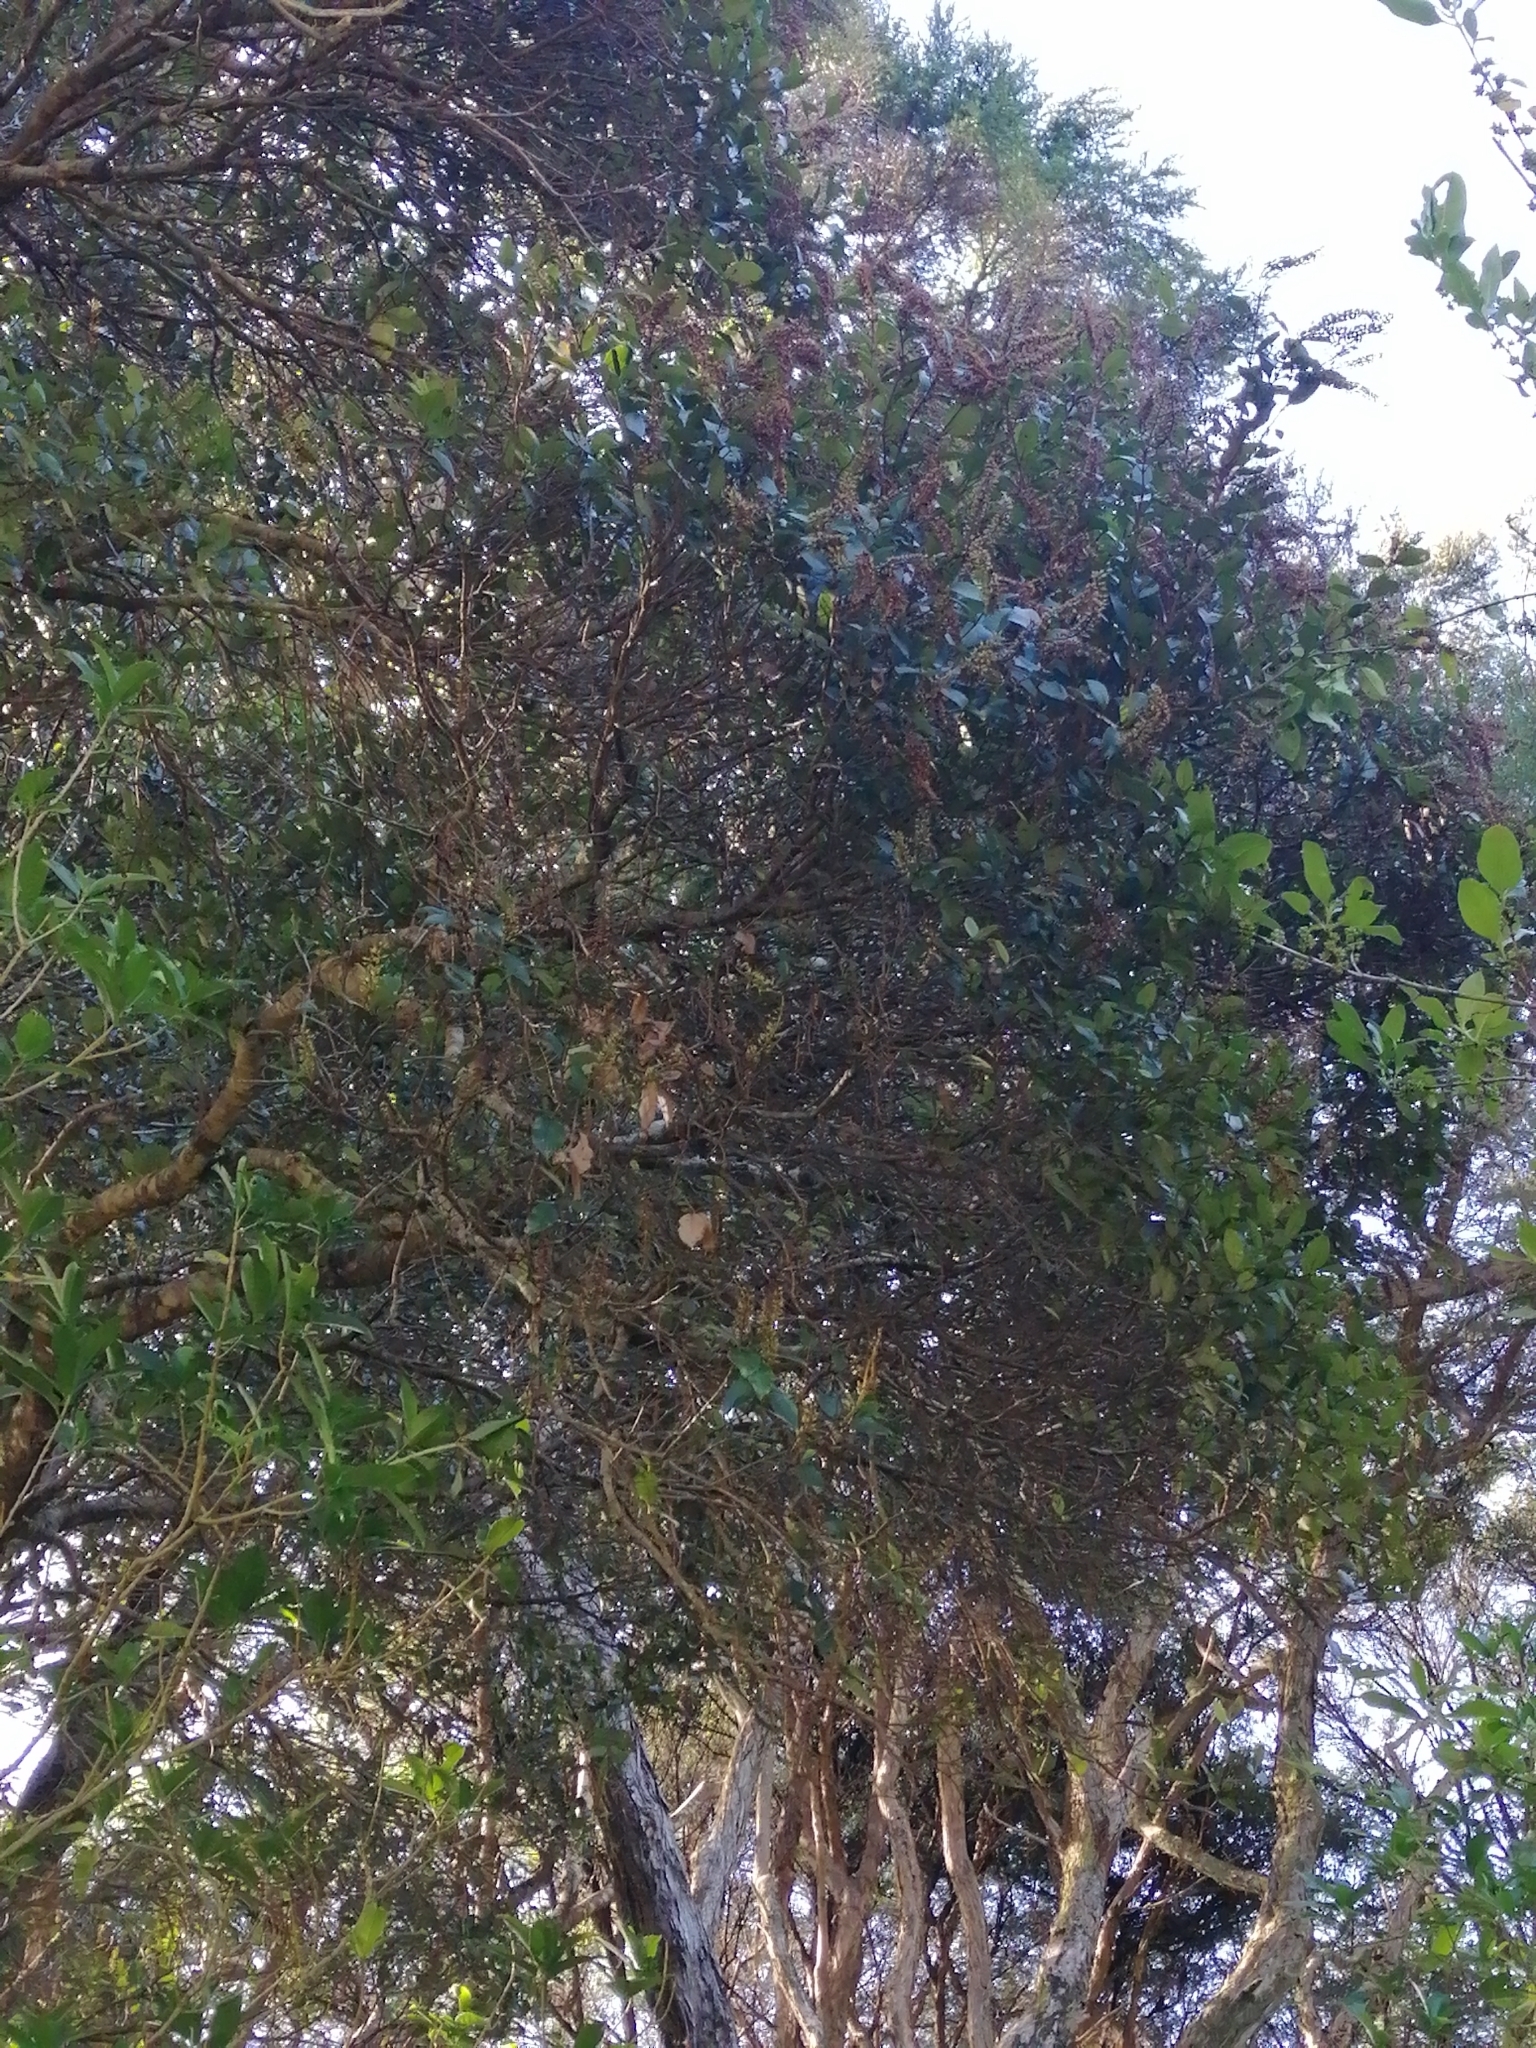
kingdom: Plantae
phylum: Tracheophyta
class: Magnoliopsida
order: Oxalidales
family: Cunoniaceae
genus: Pterophylla
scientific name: Pterophylla racemosa
